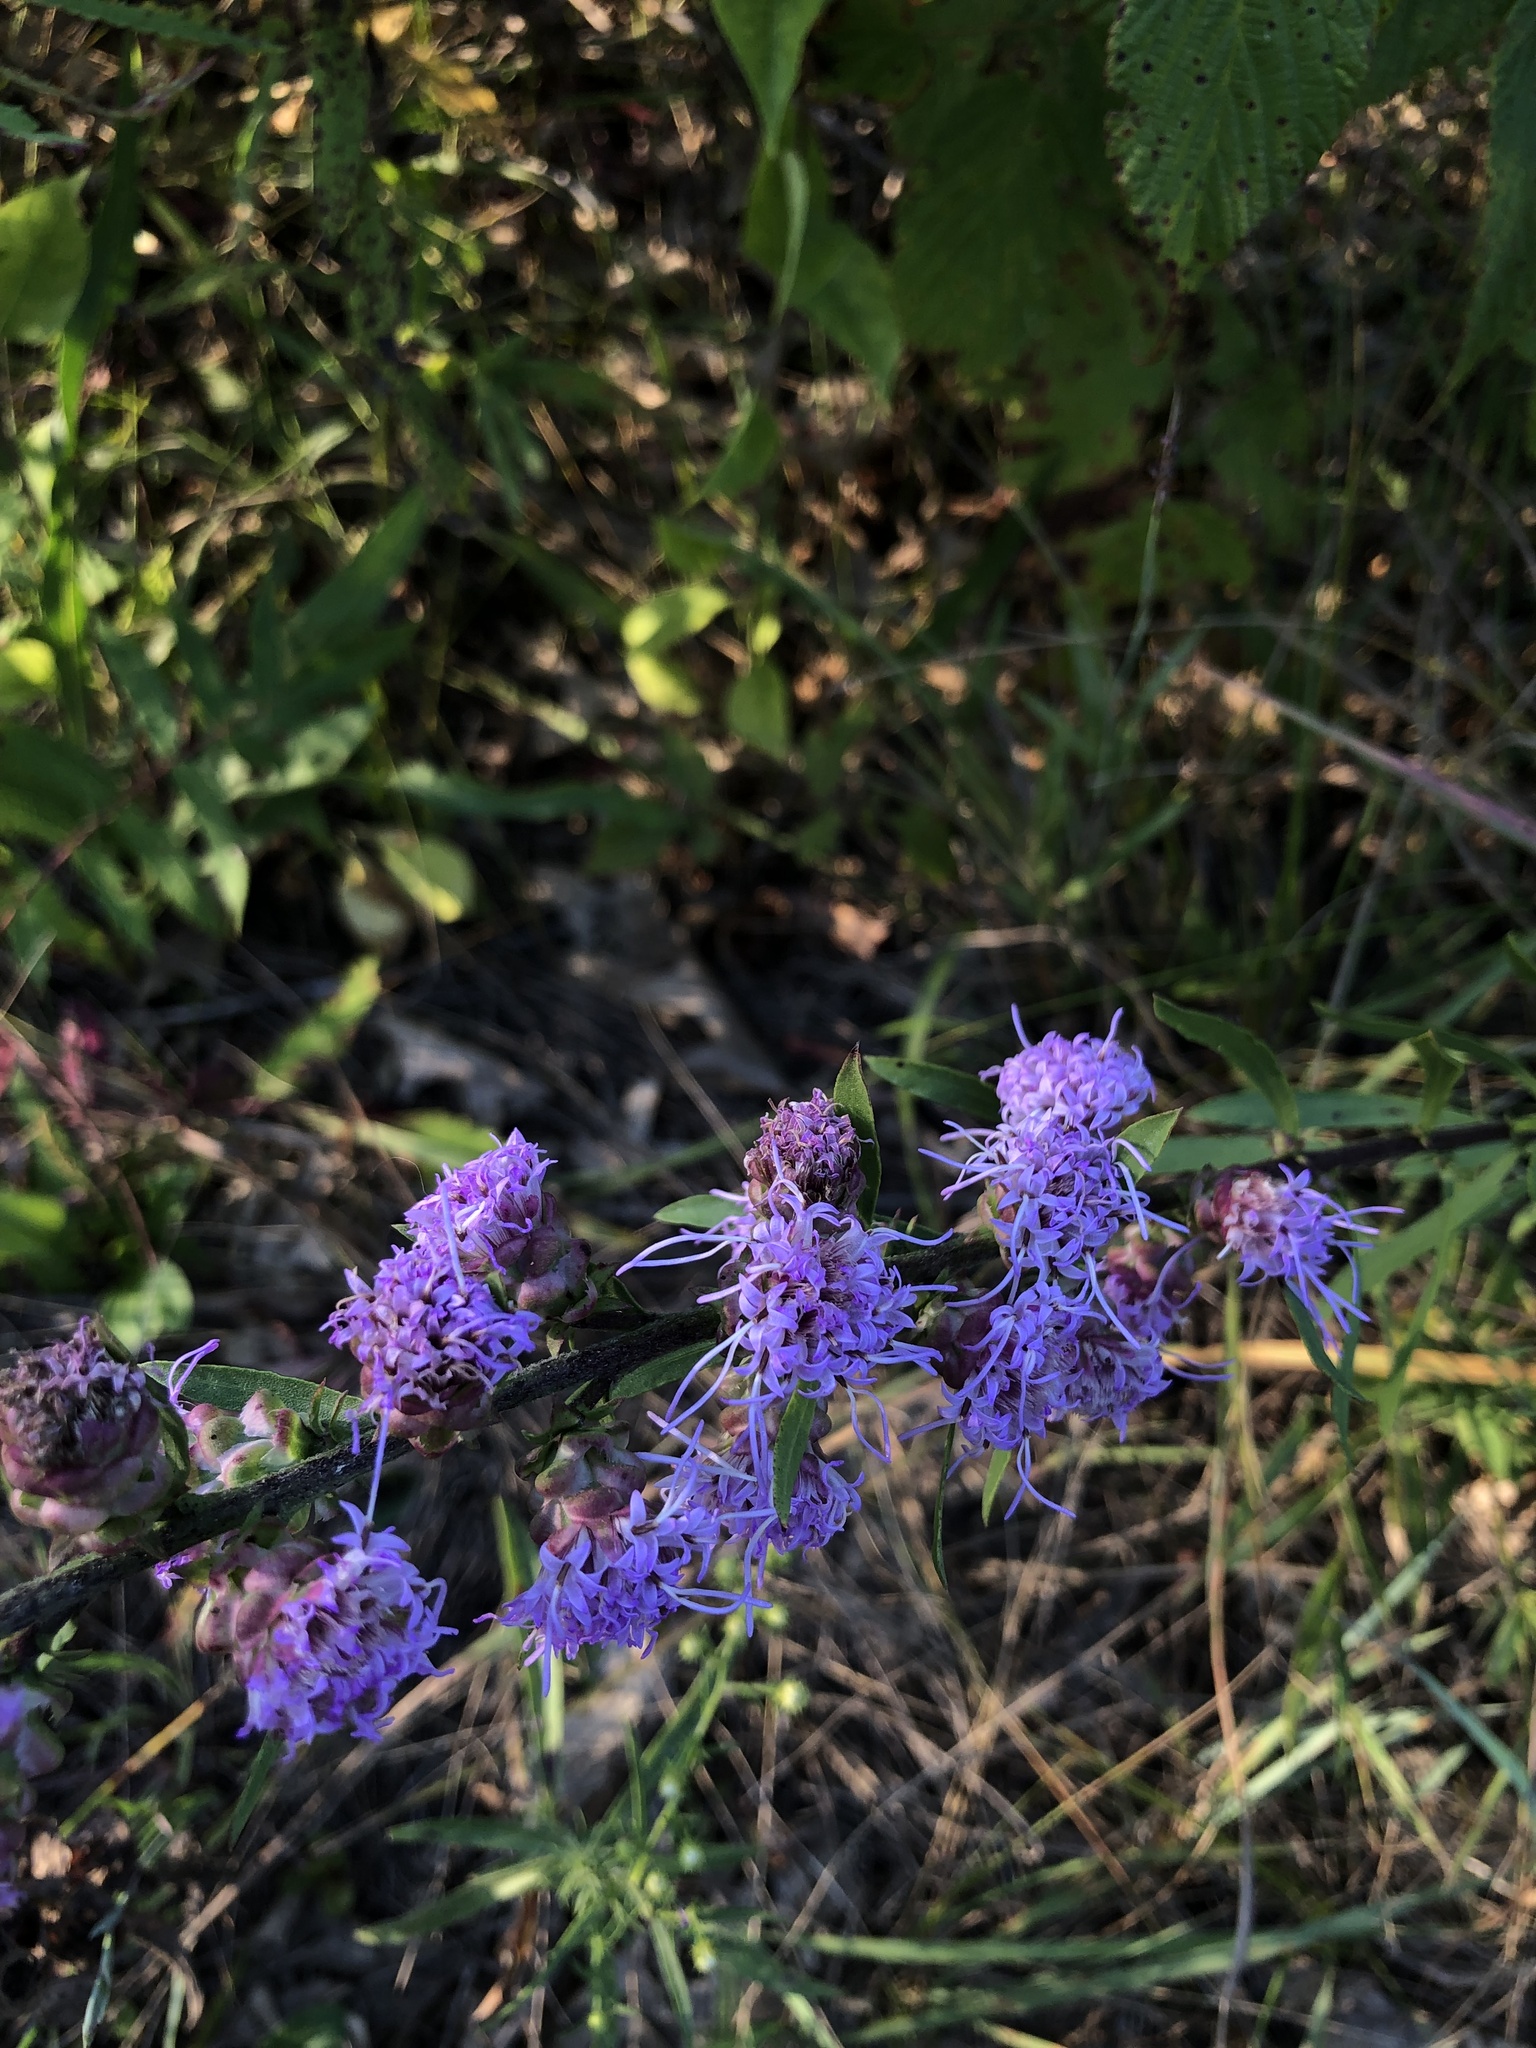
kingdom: Plantae
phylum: Tracheophyta
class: Magnoliopsida
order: Asterales
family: Asteraceae
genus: Liatris
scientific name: Liatris aspera
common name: Lacerate blazing-star
